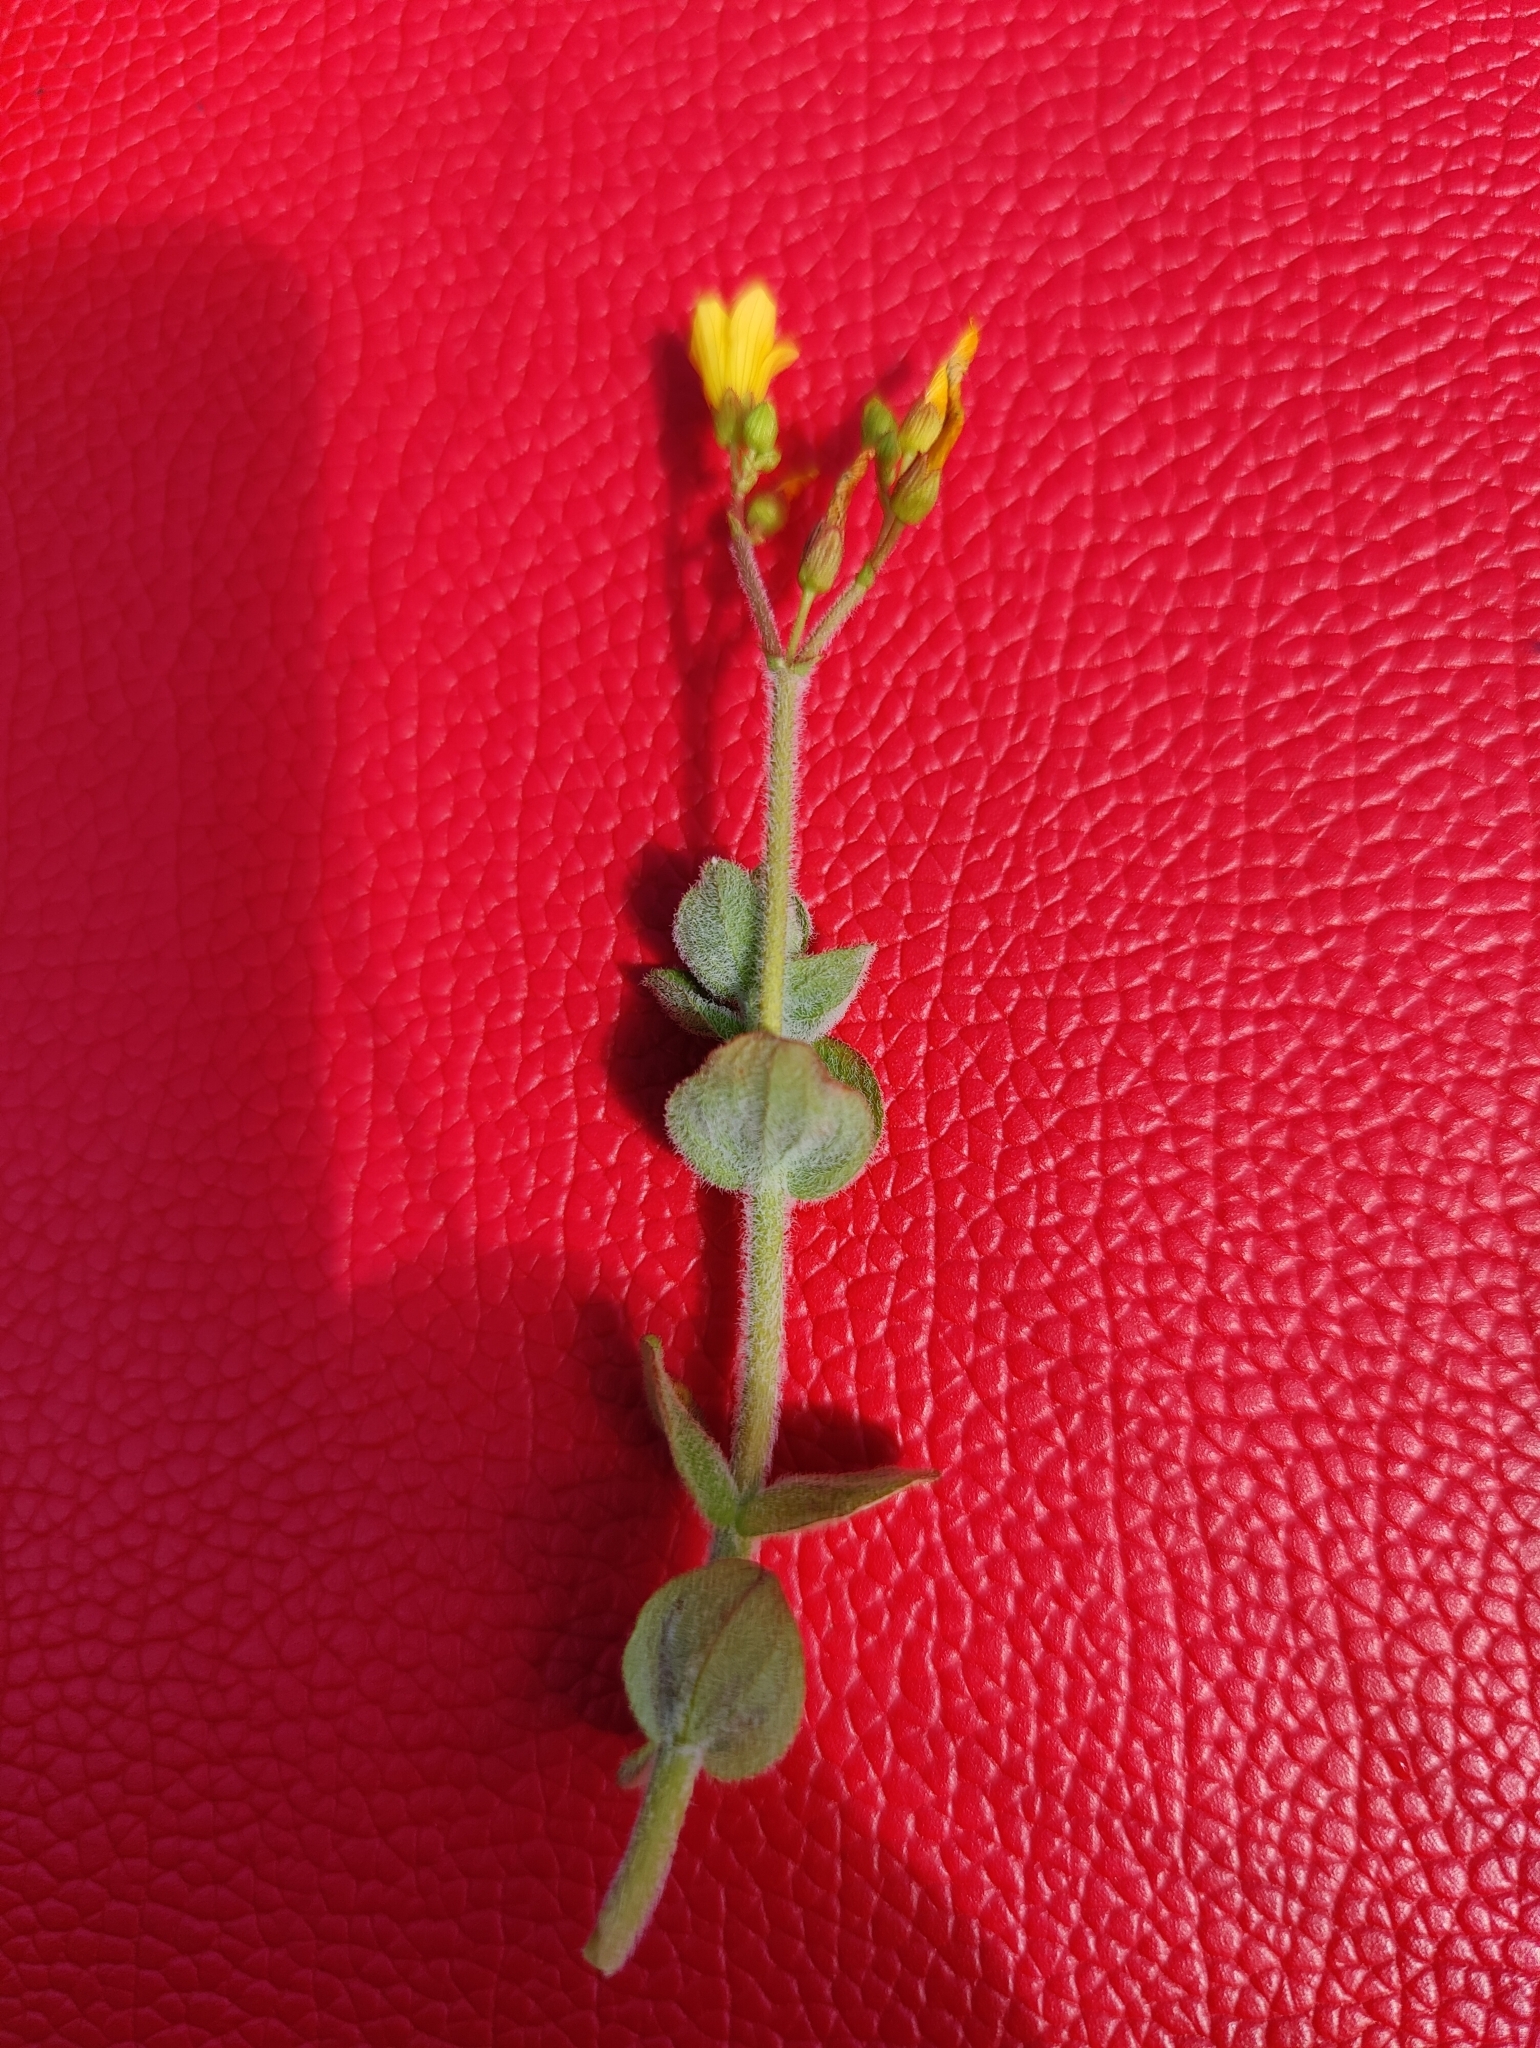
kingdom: Plantae
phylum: Tracheophyta
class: Magnoliopsida
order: Malpighiales
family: Hypericaceae
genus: Hypericum
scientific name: Hypericum elodes
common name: Marsh st. john's-wort
